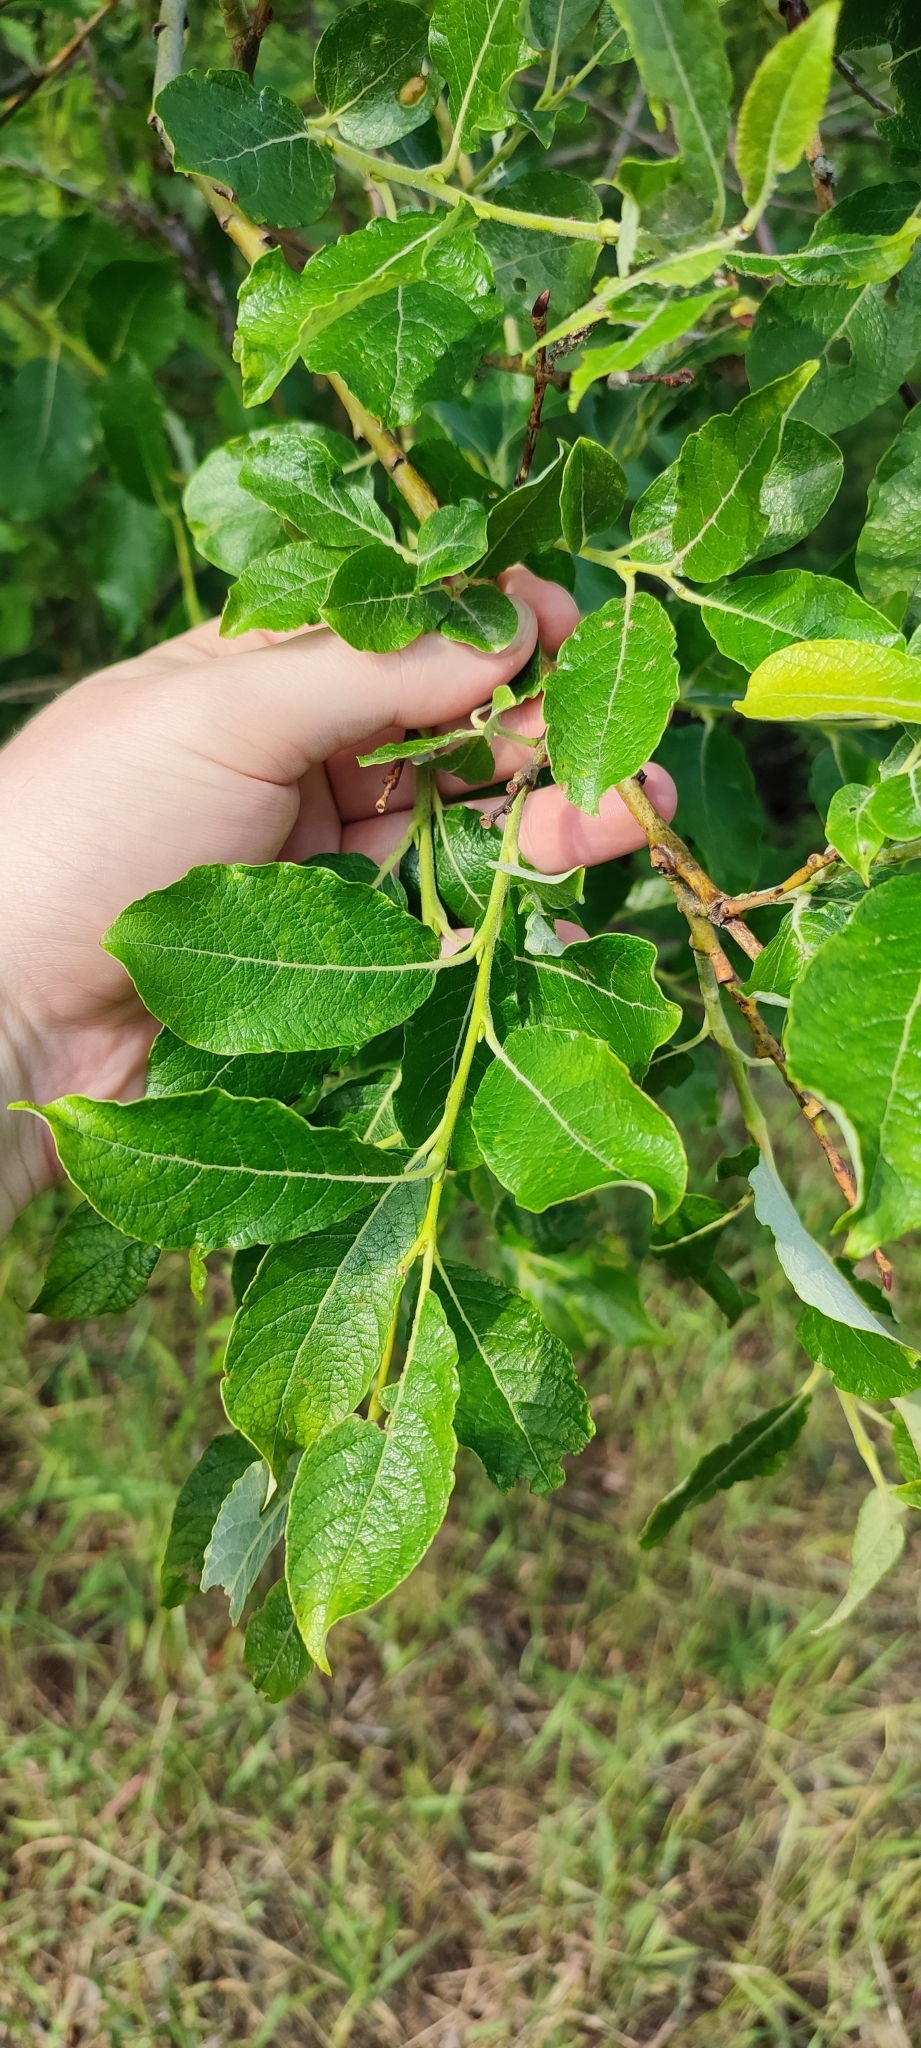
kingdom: Plantae
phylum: Tracheophyta
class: Magnoliopsida
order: Malpighiales
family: Salicaceae
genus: Salix
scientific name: Salix caprea
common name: Goat willow
